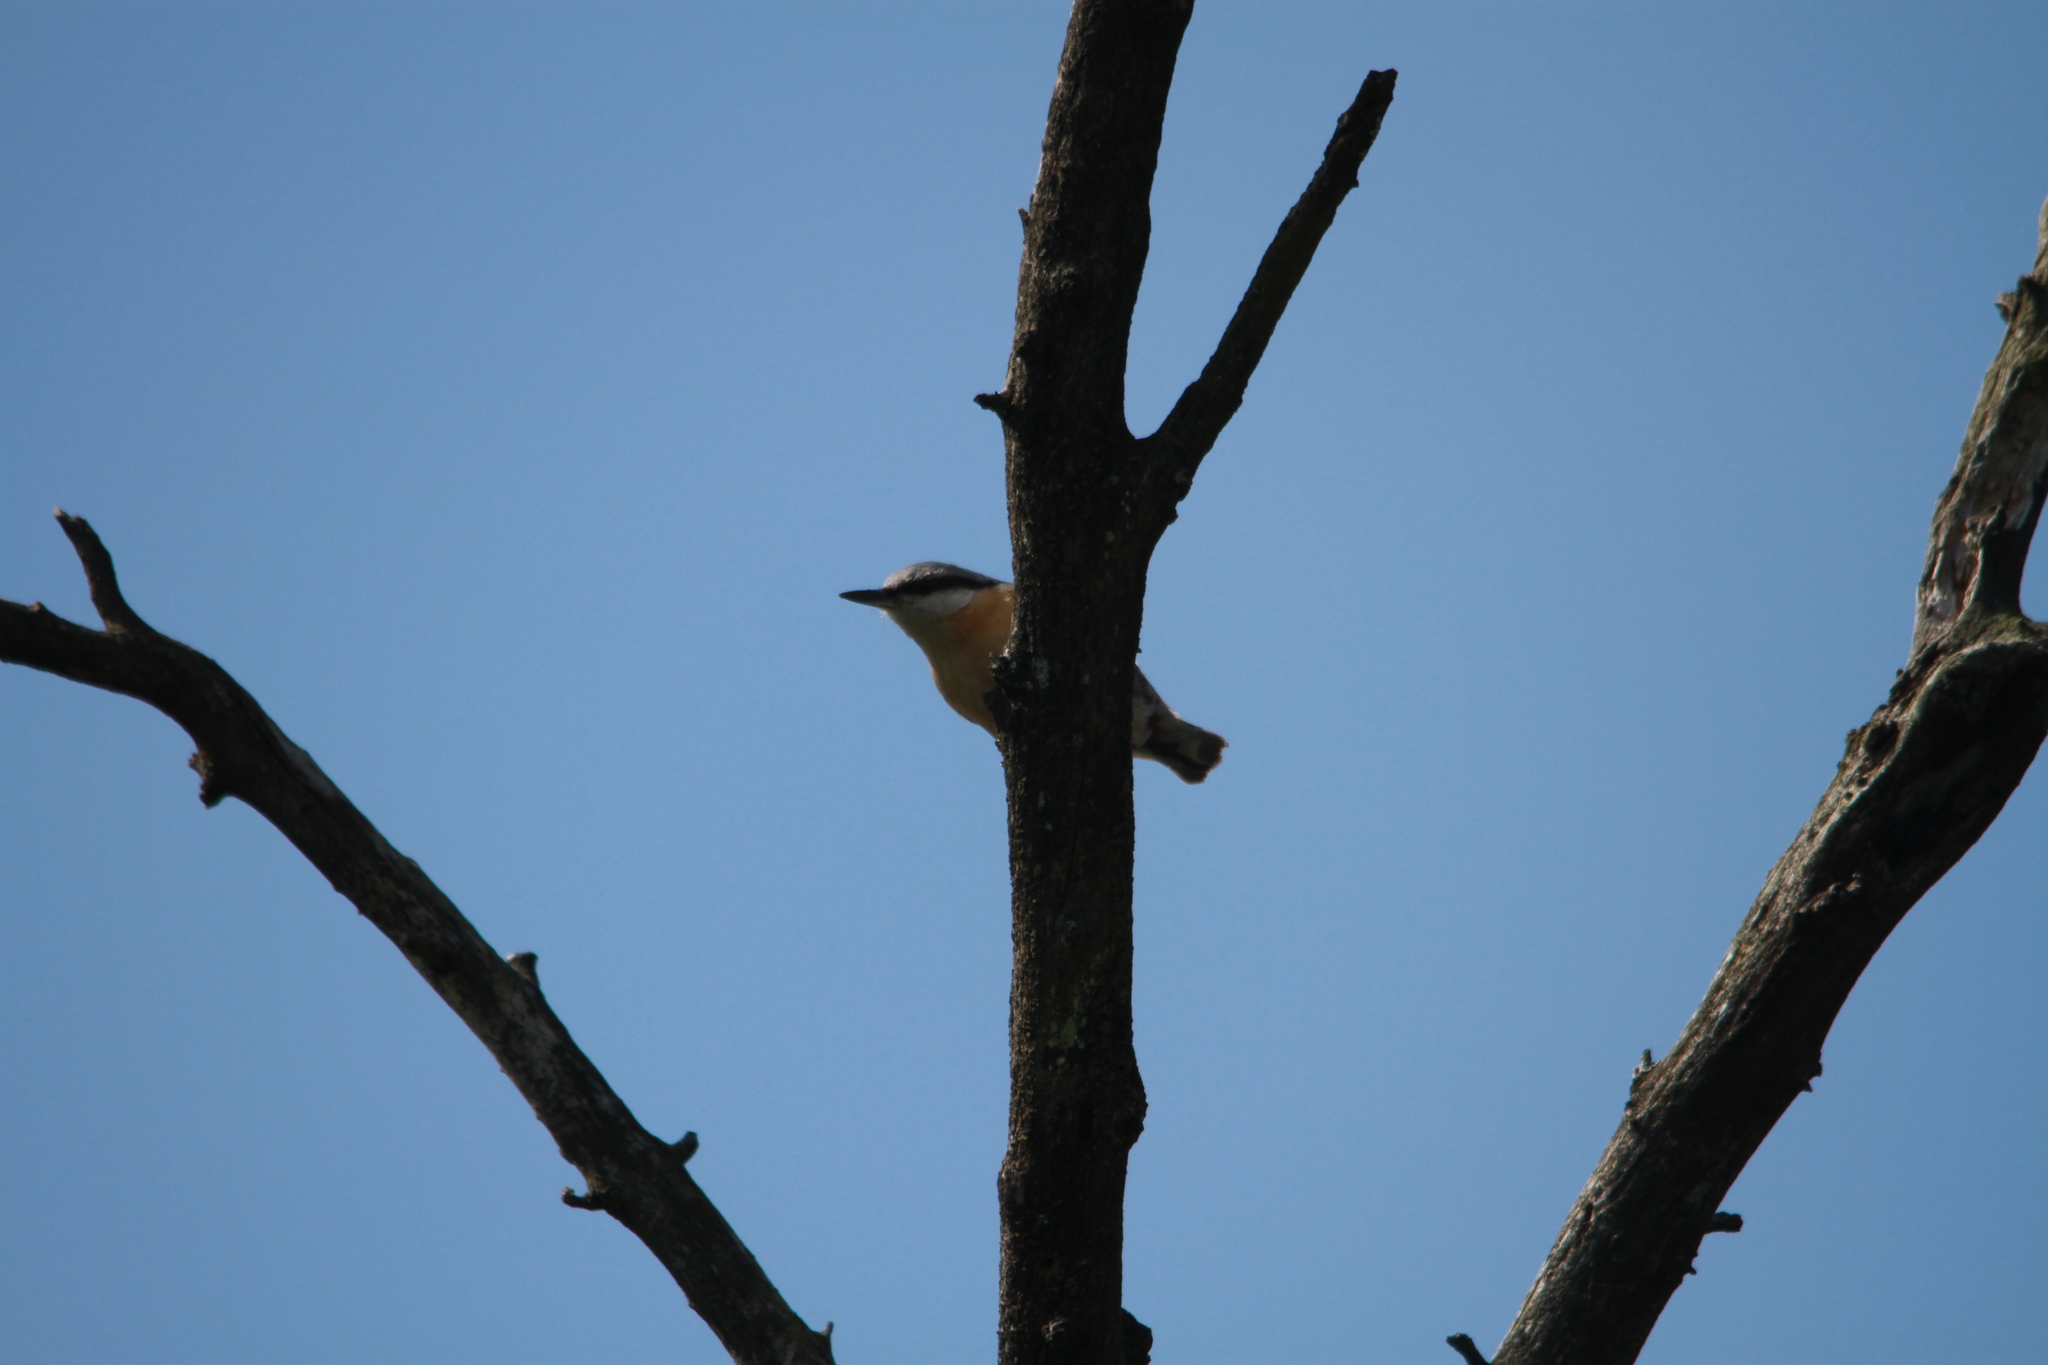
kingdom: Animalia
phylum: Chordata
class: Aves
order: Passeriformes
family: Sittidae
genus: Sitta
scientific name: Sitta europaea
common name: Eurasian nuthatch
